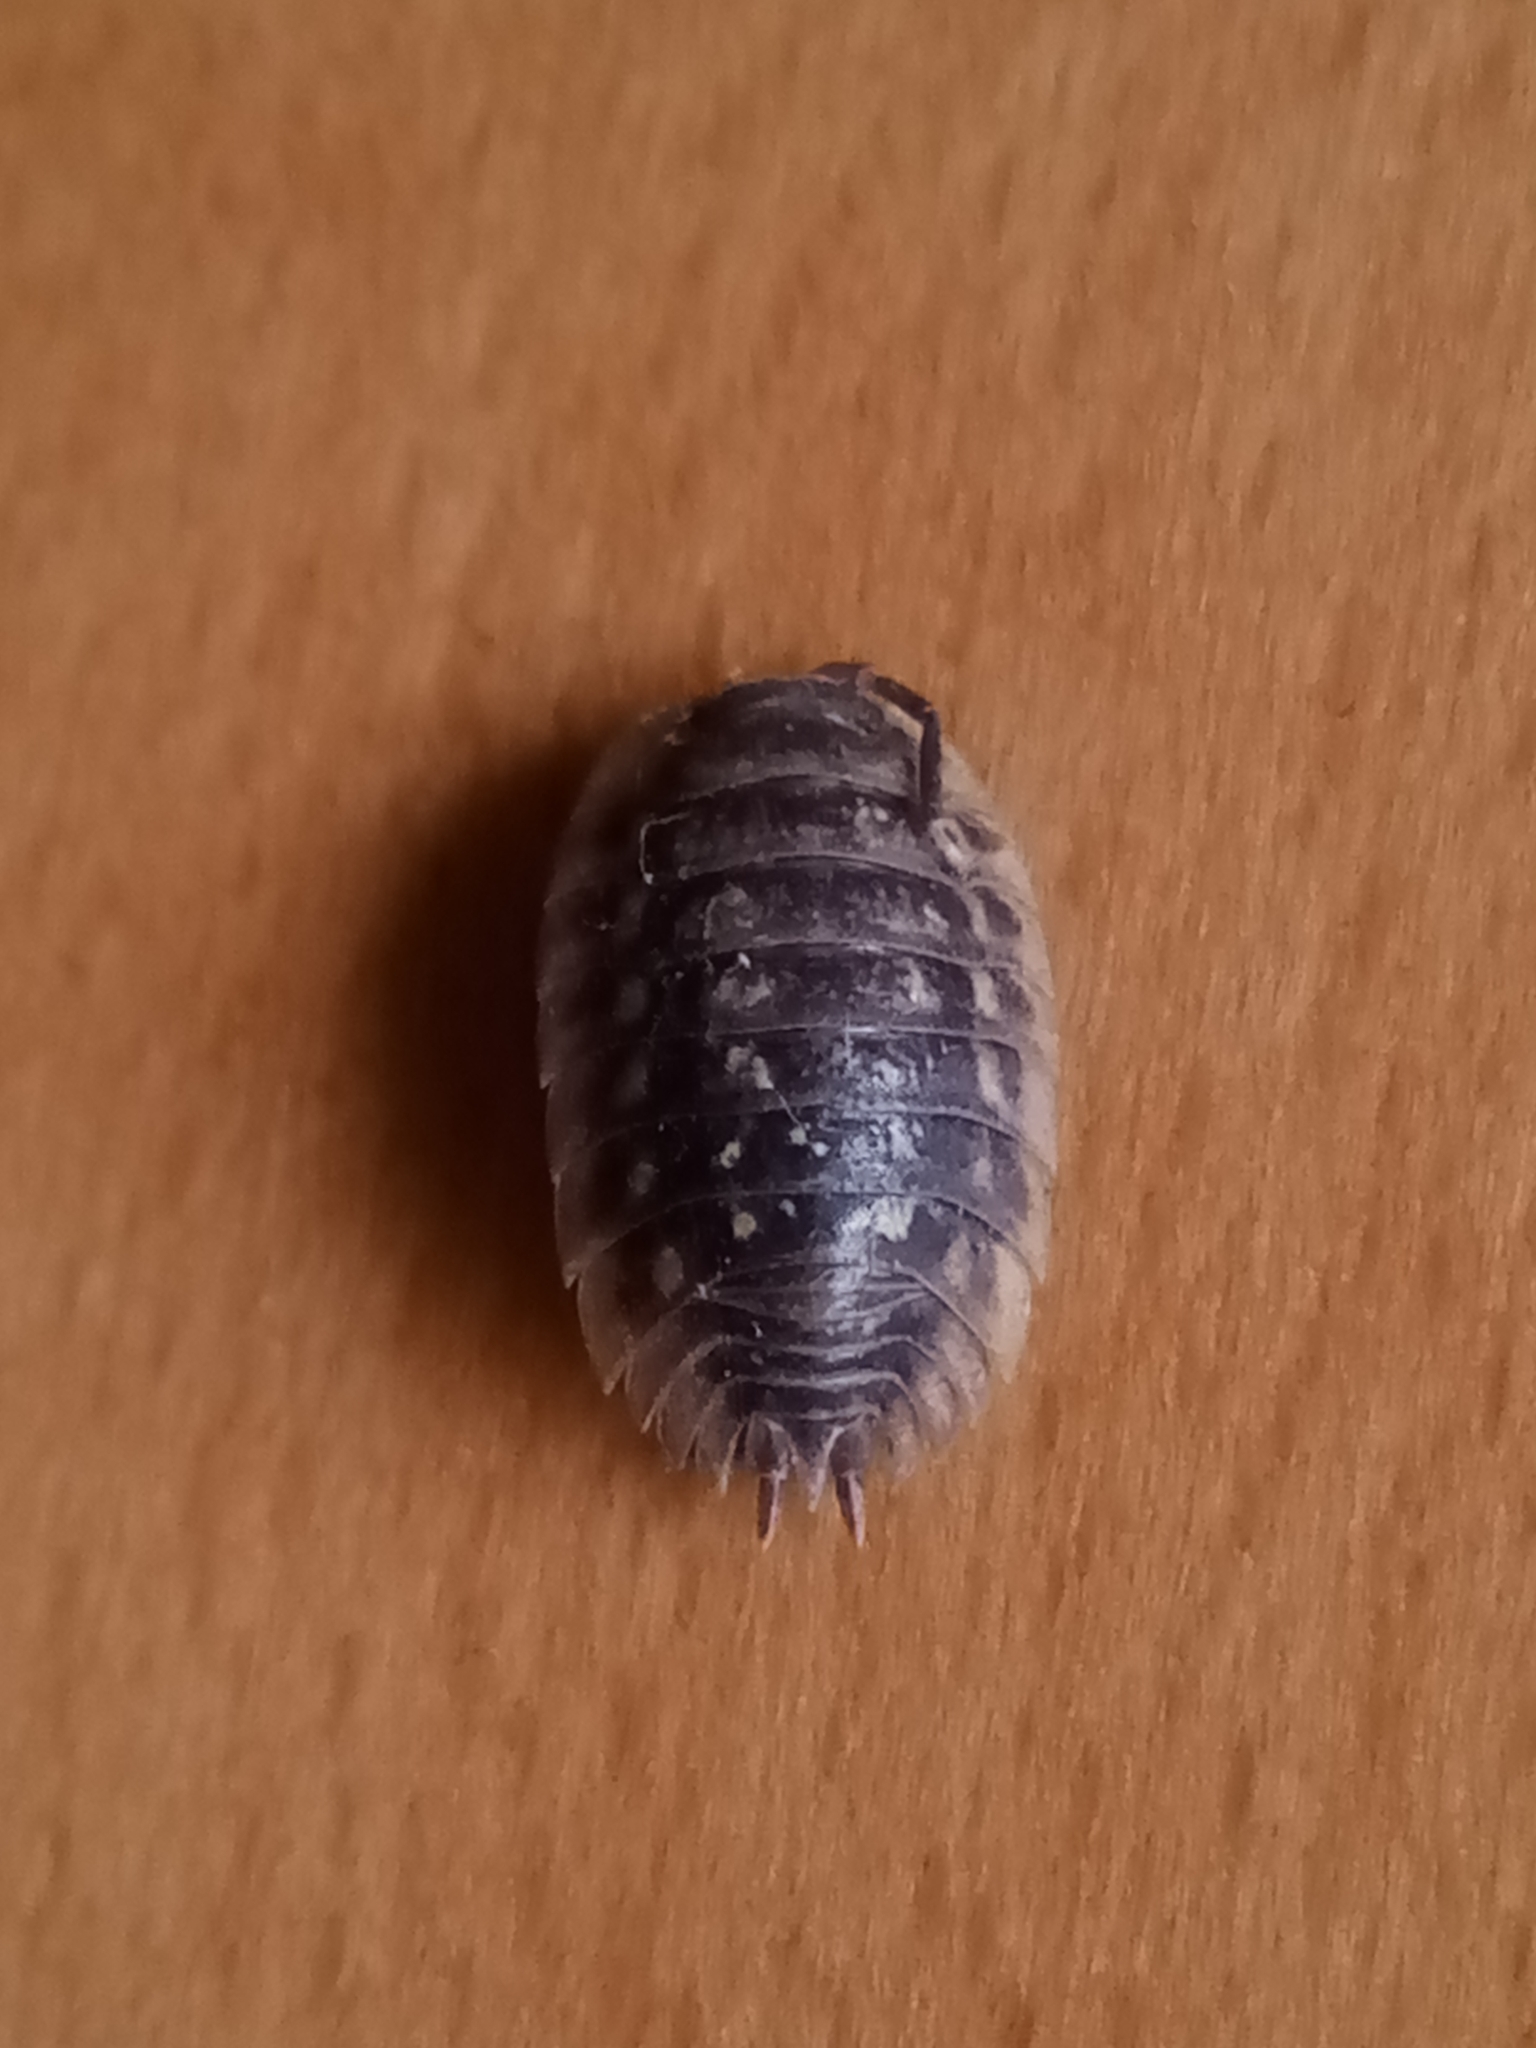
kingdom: Animalia
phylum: Arthropoda
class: Malacostraca
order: Isopoda
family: Oniscidae
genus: Oniscus
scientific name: Oniscus asellus
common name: Common shiny woodlouse
